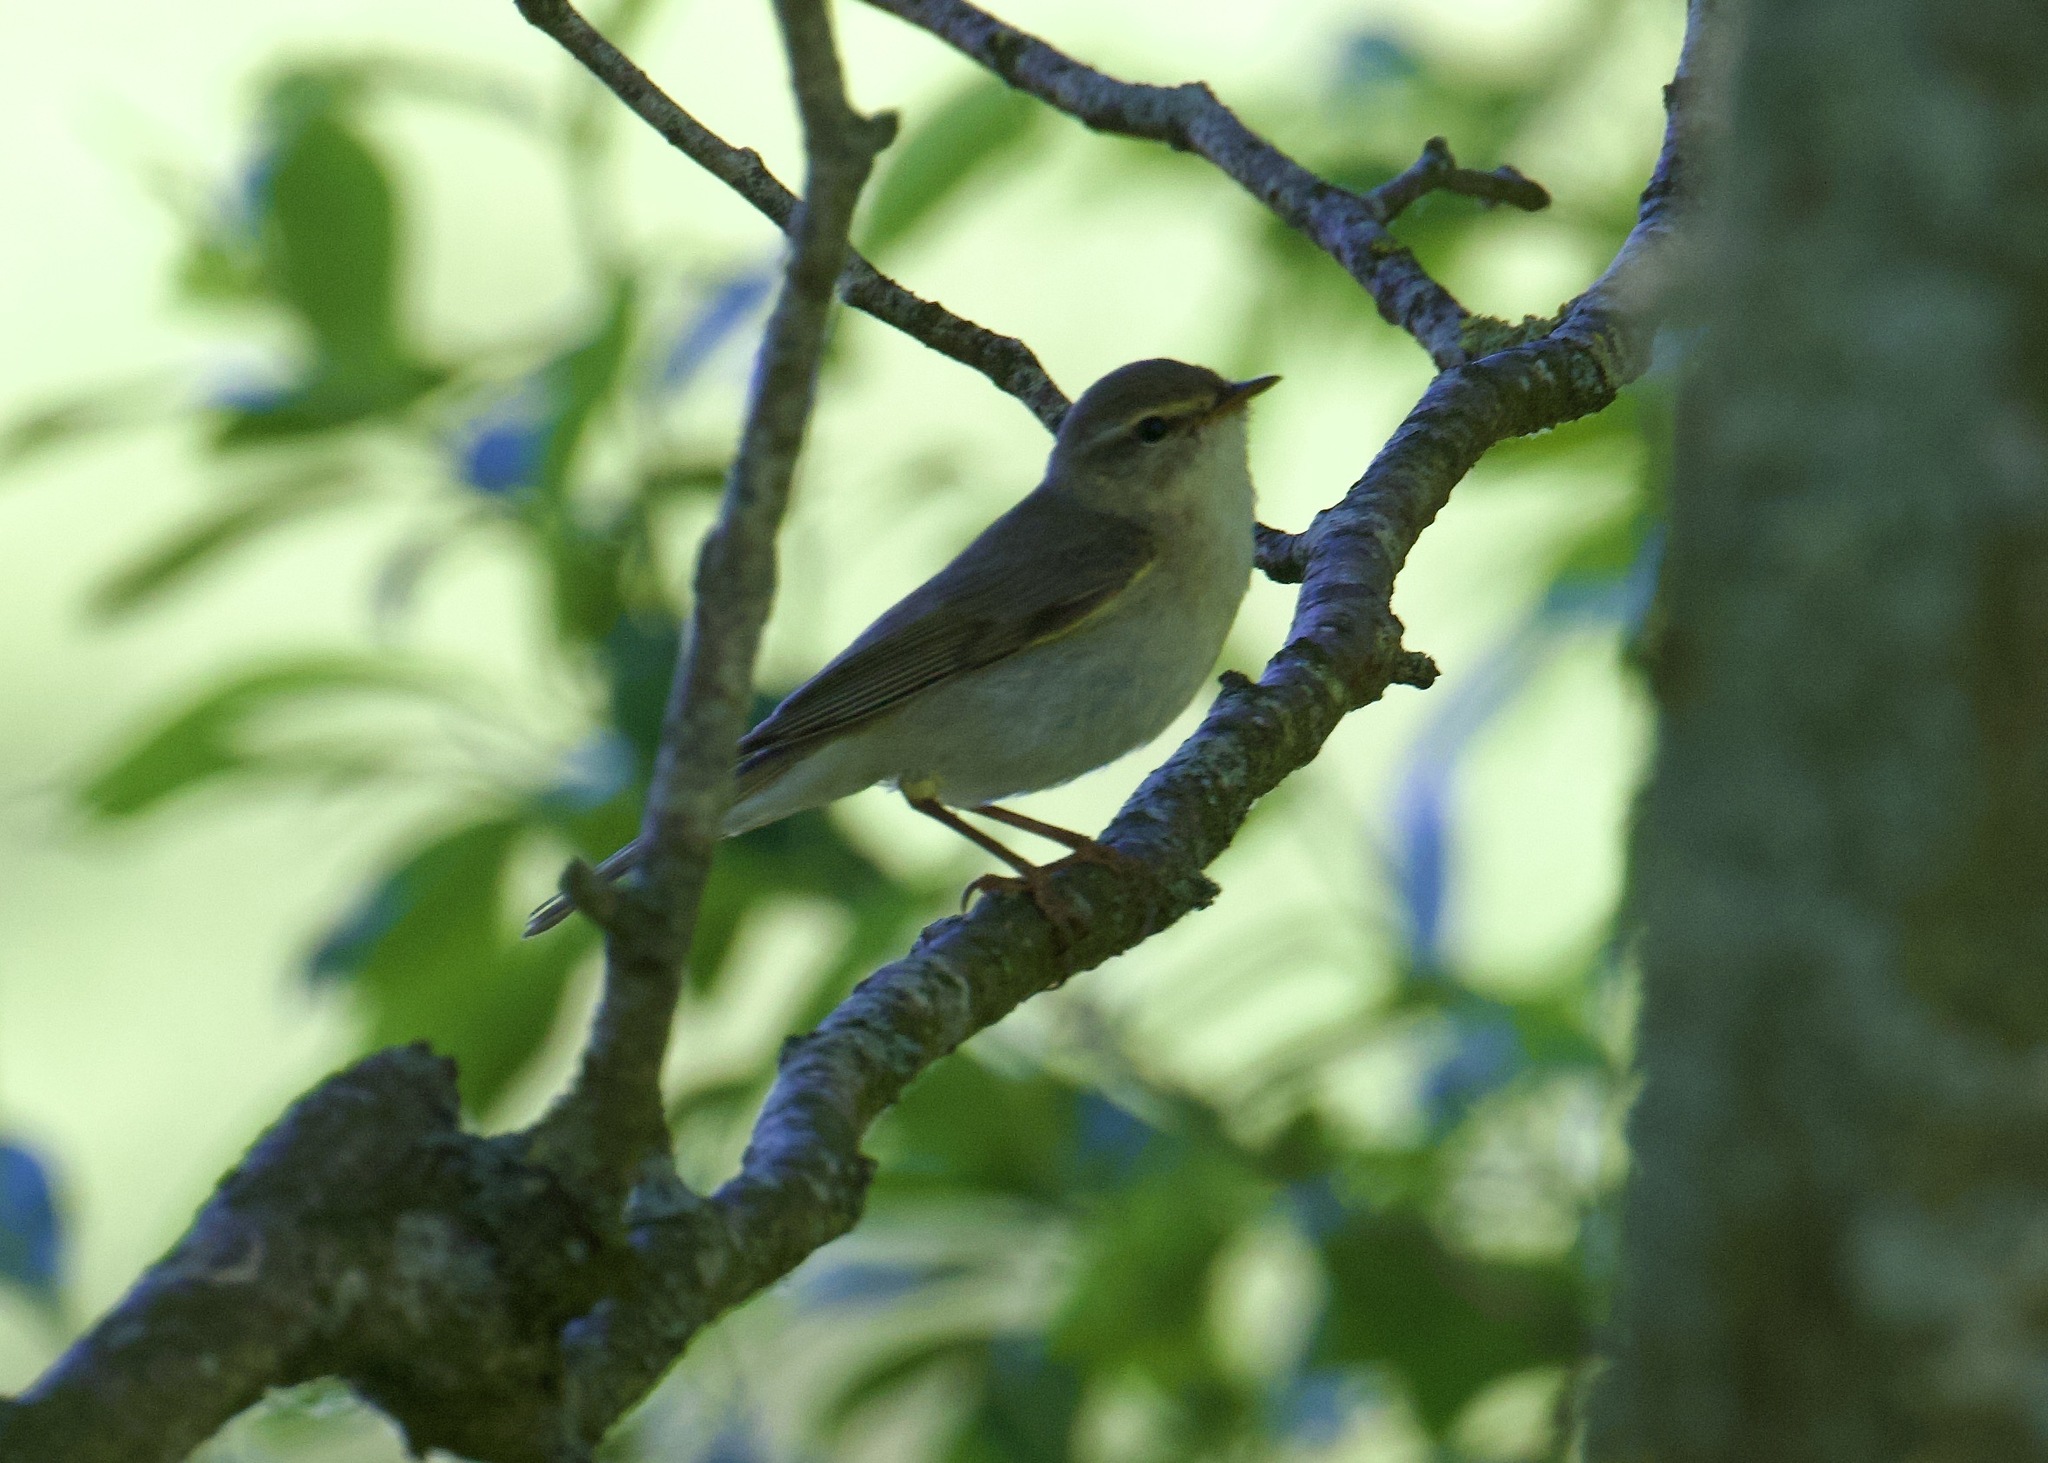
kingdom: Animalia
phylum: Chordata
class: Aves
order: Passeriformes
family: Phylloscopidae
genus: Phylloscopus
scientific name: Phylloscopus trochilus
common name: Willow warbler
